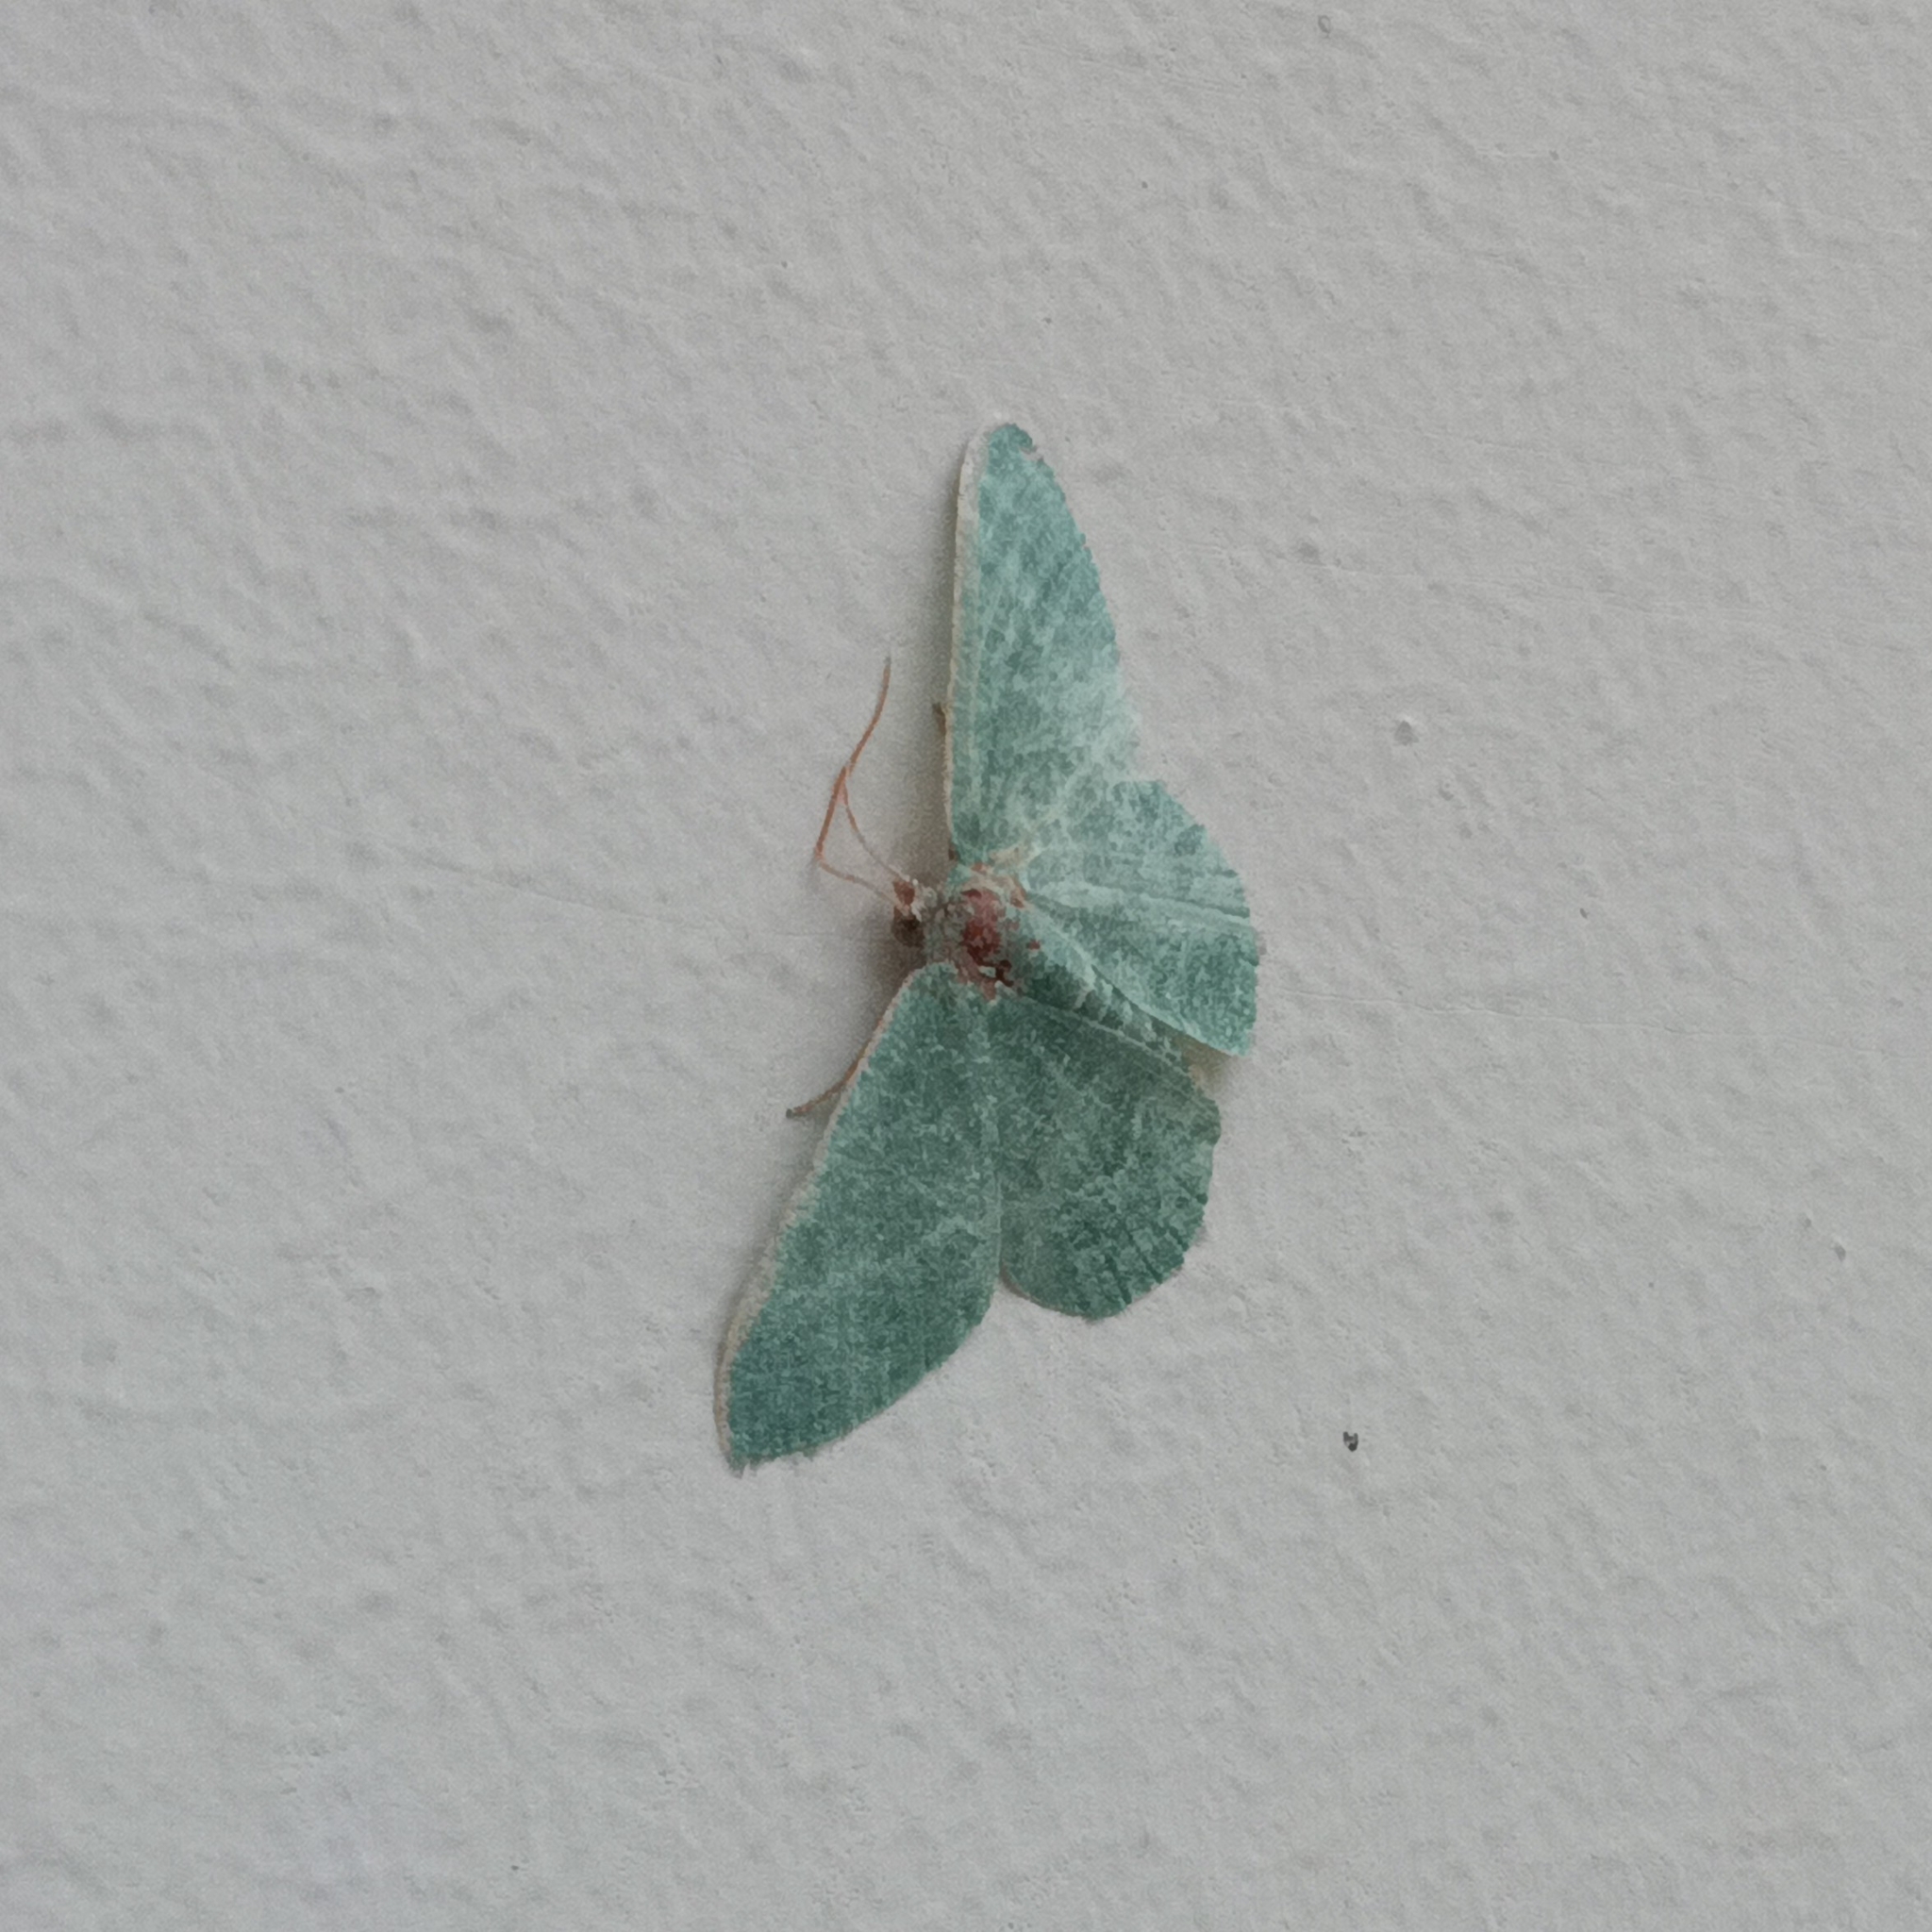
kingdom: Animalia
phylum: Arthropoda
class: Insecta
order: Lepidoptera
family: Geometridae
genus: Chlorissa
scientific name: Chlorissa etruscaria
